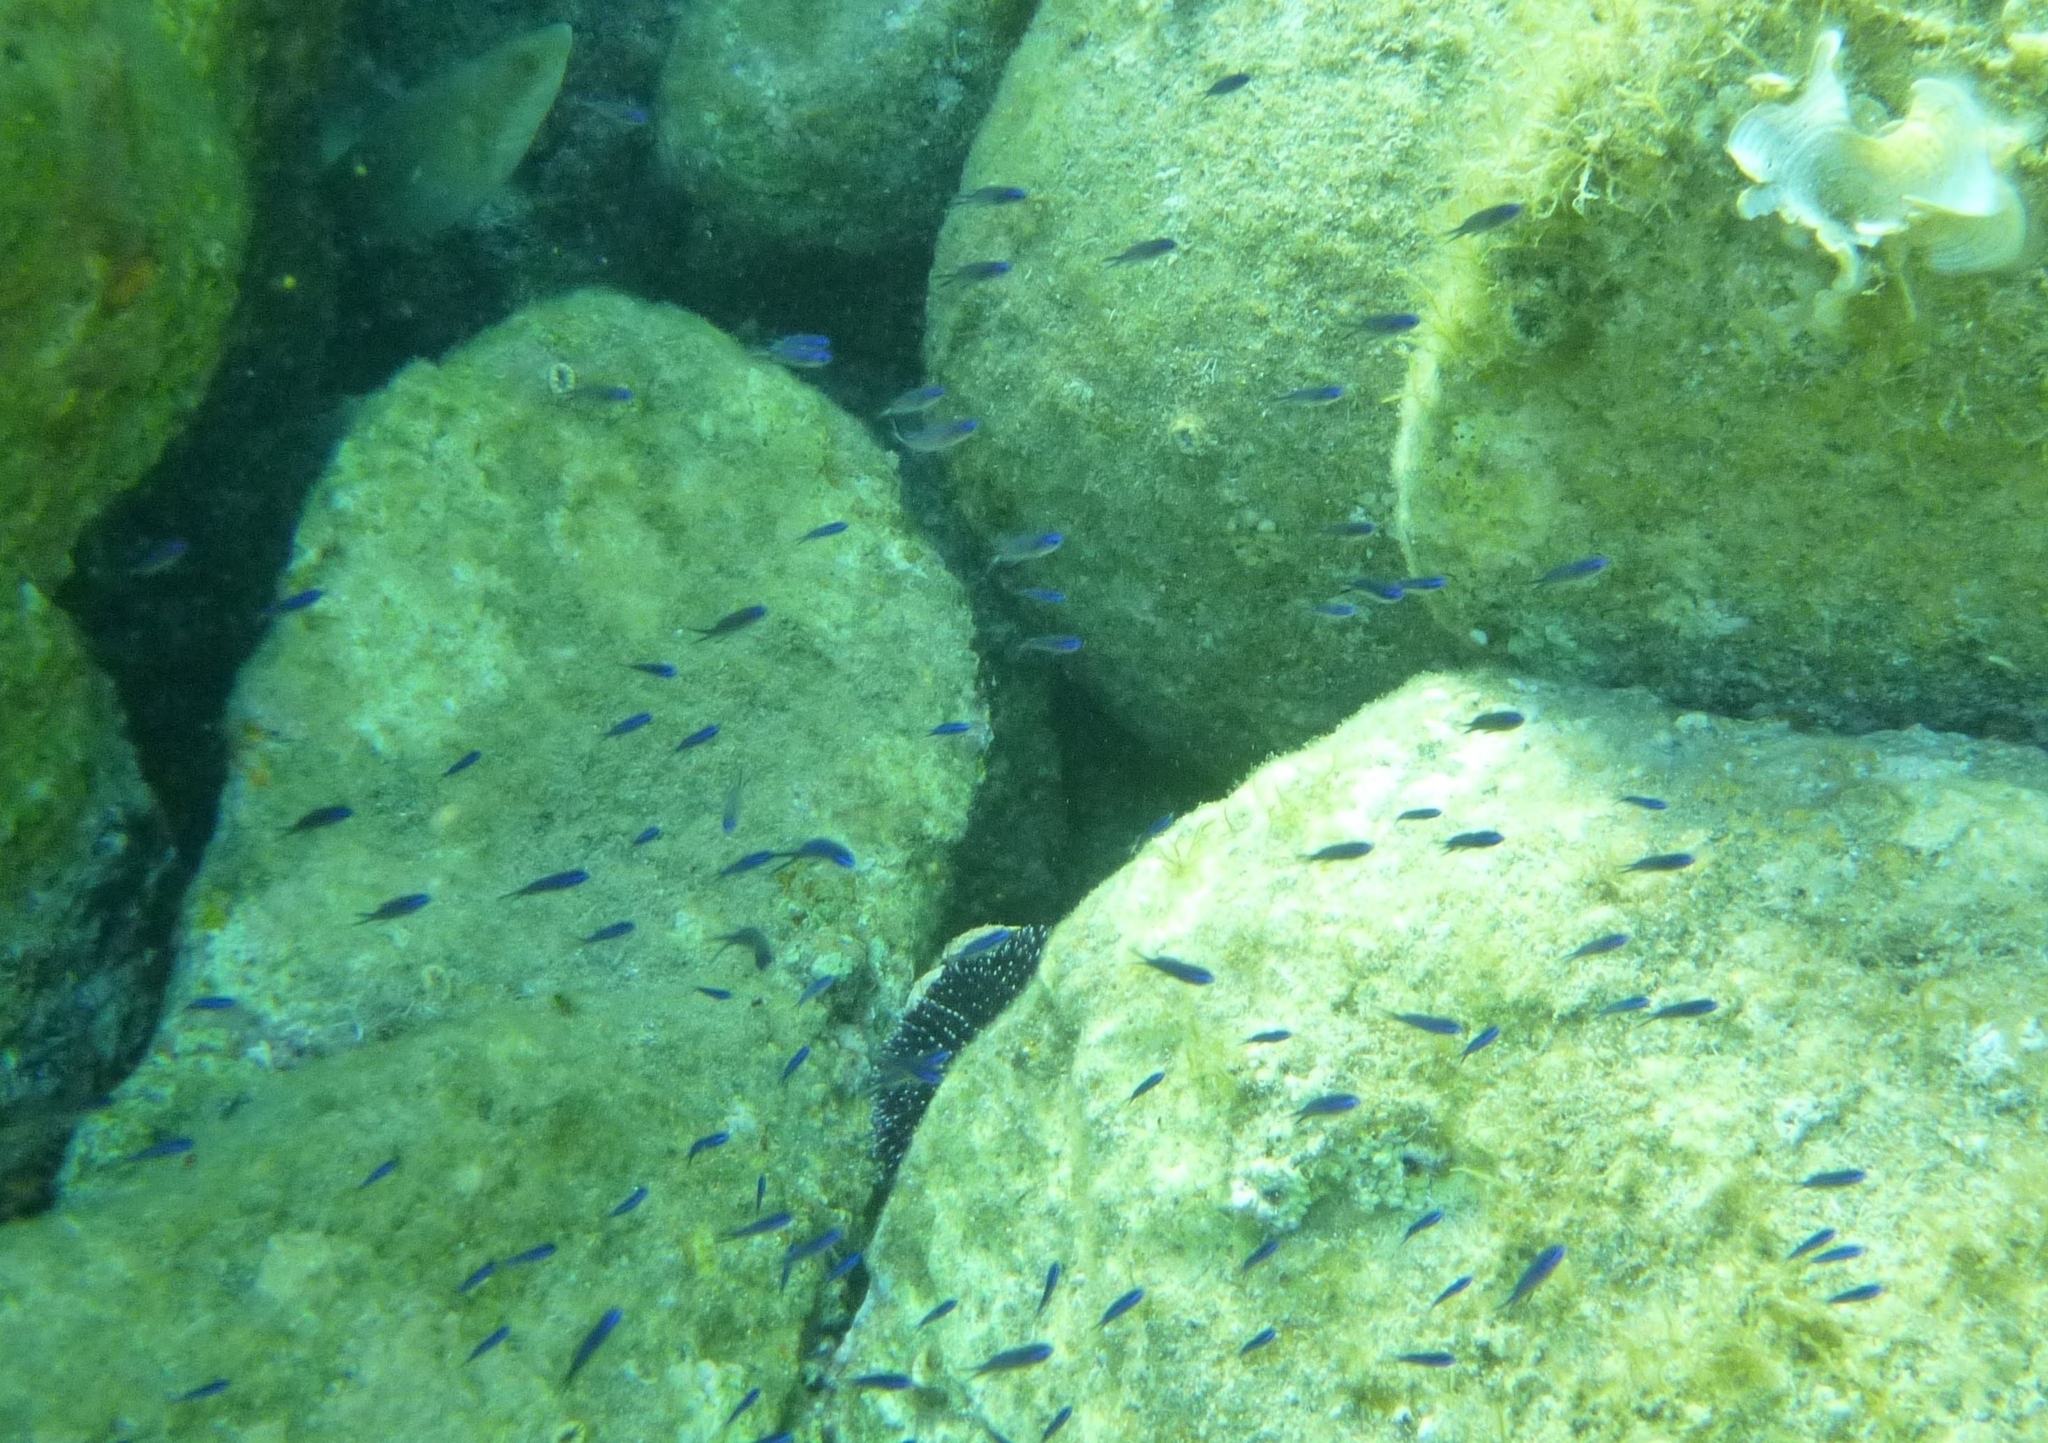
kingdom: Animalia
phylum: Chordata
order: Perciformes
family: Pomacentridae
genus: Chromis
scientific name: Chromis chromis
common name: Damselfish
